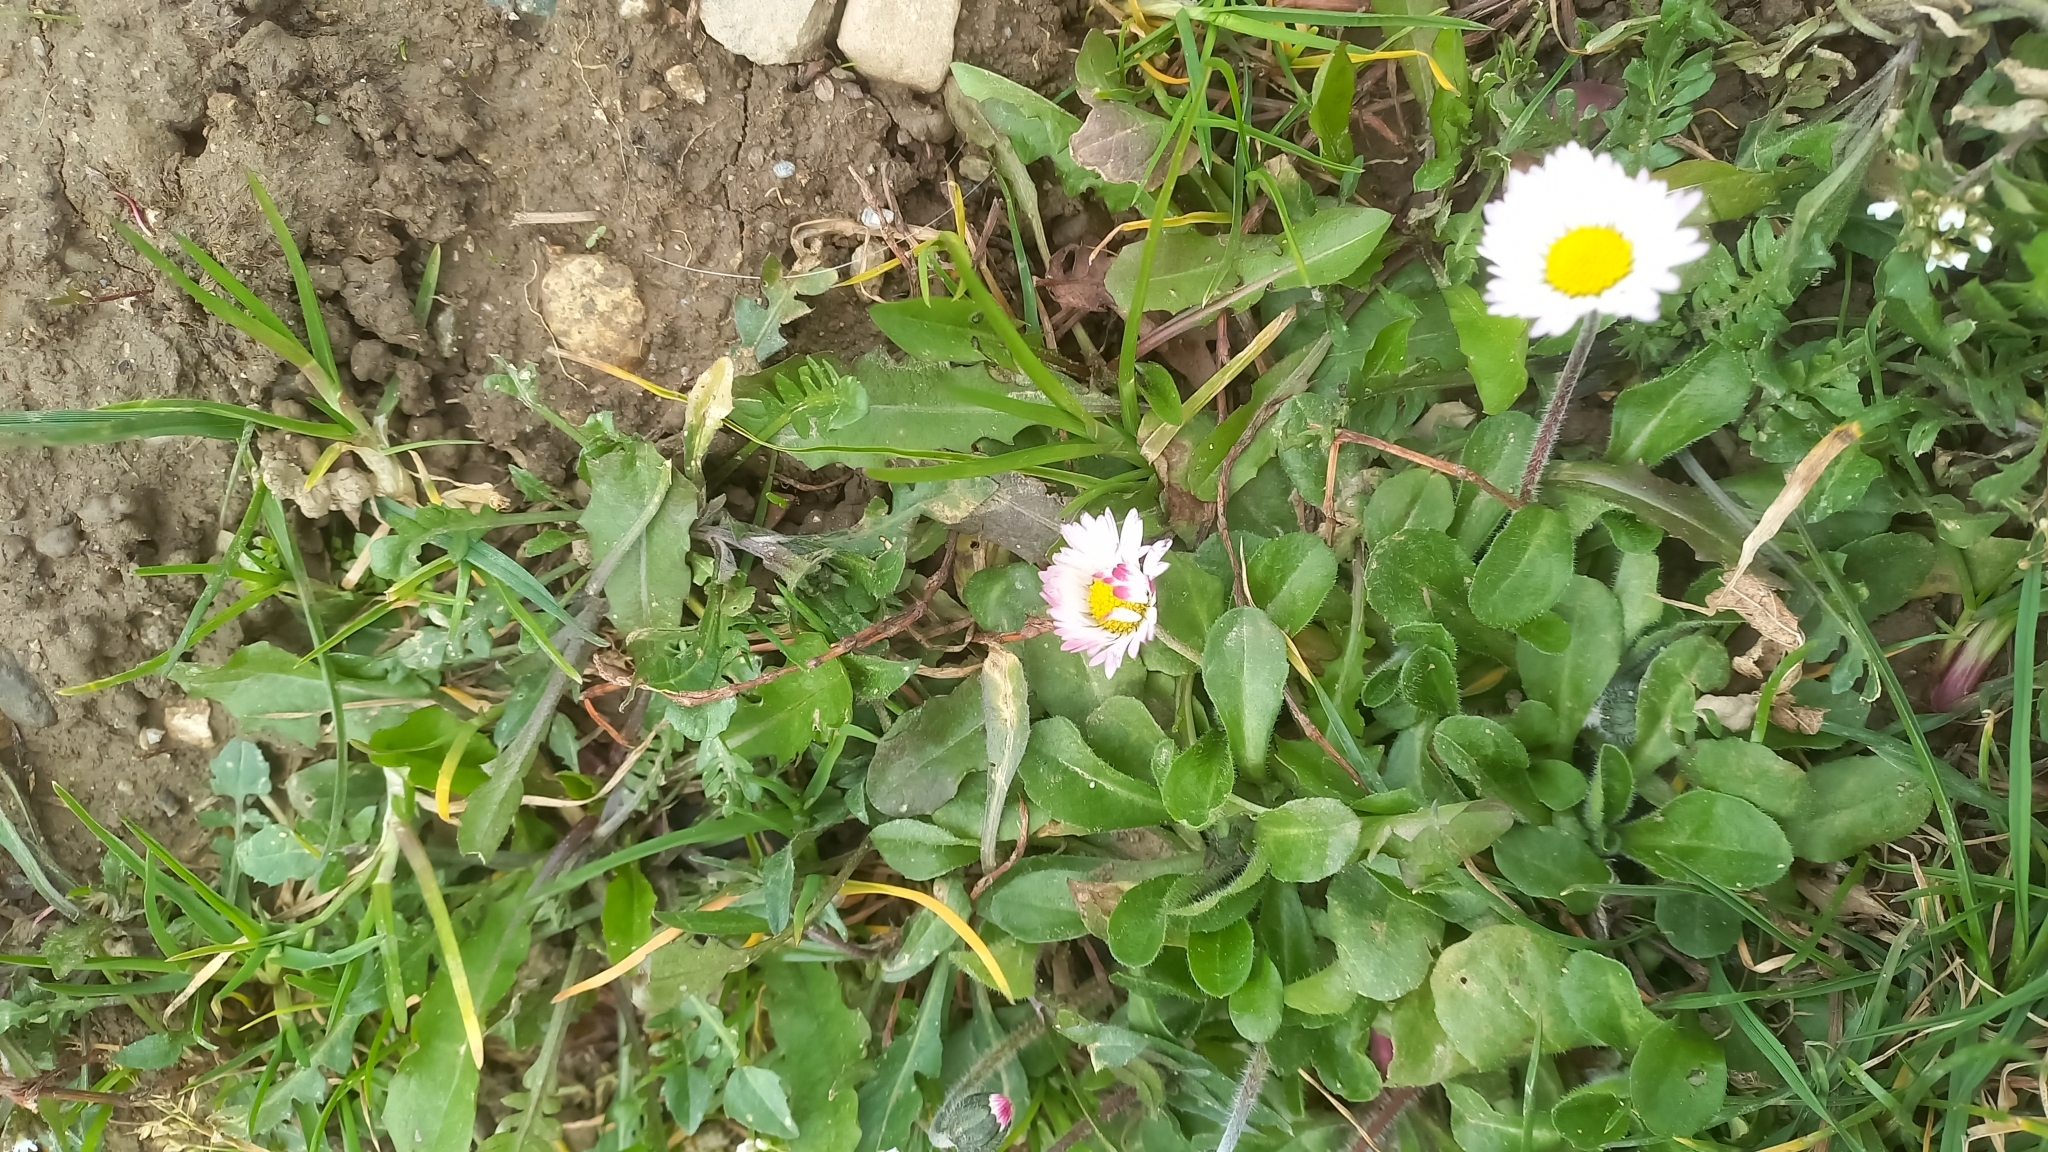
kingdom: Plantae
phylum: Tracheophyta
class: Magnoliopsida
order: Asterales
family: Asteraceae
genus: Bellis
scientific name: Bellis perennis
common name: Lawndaisy
